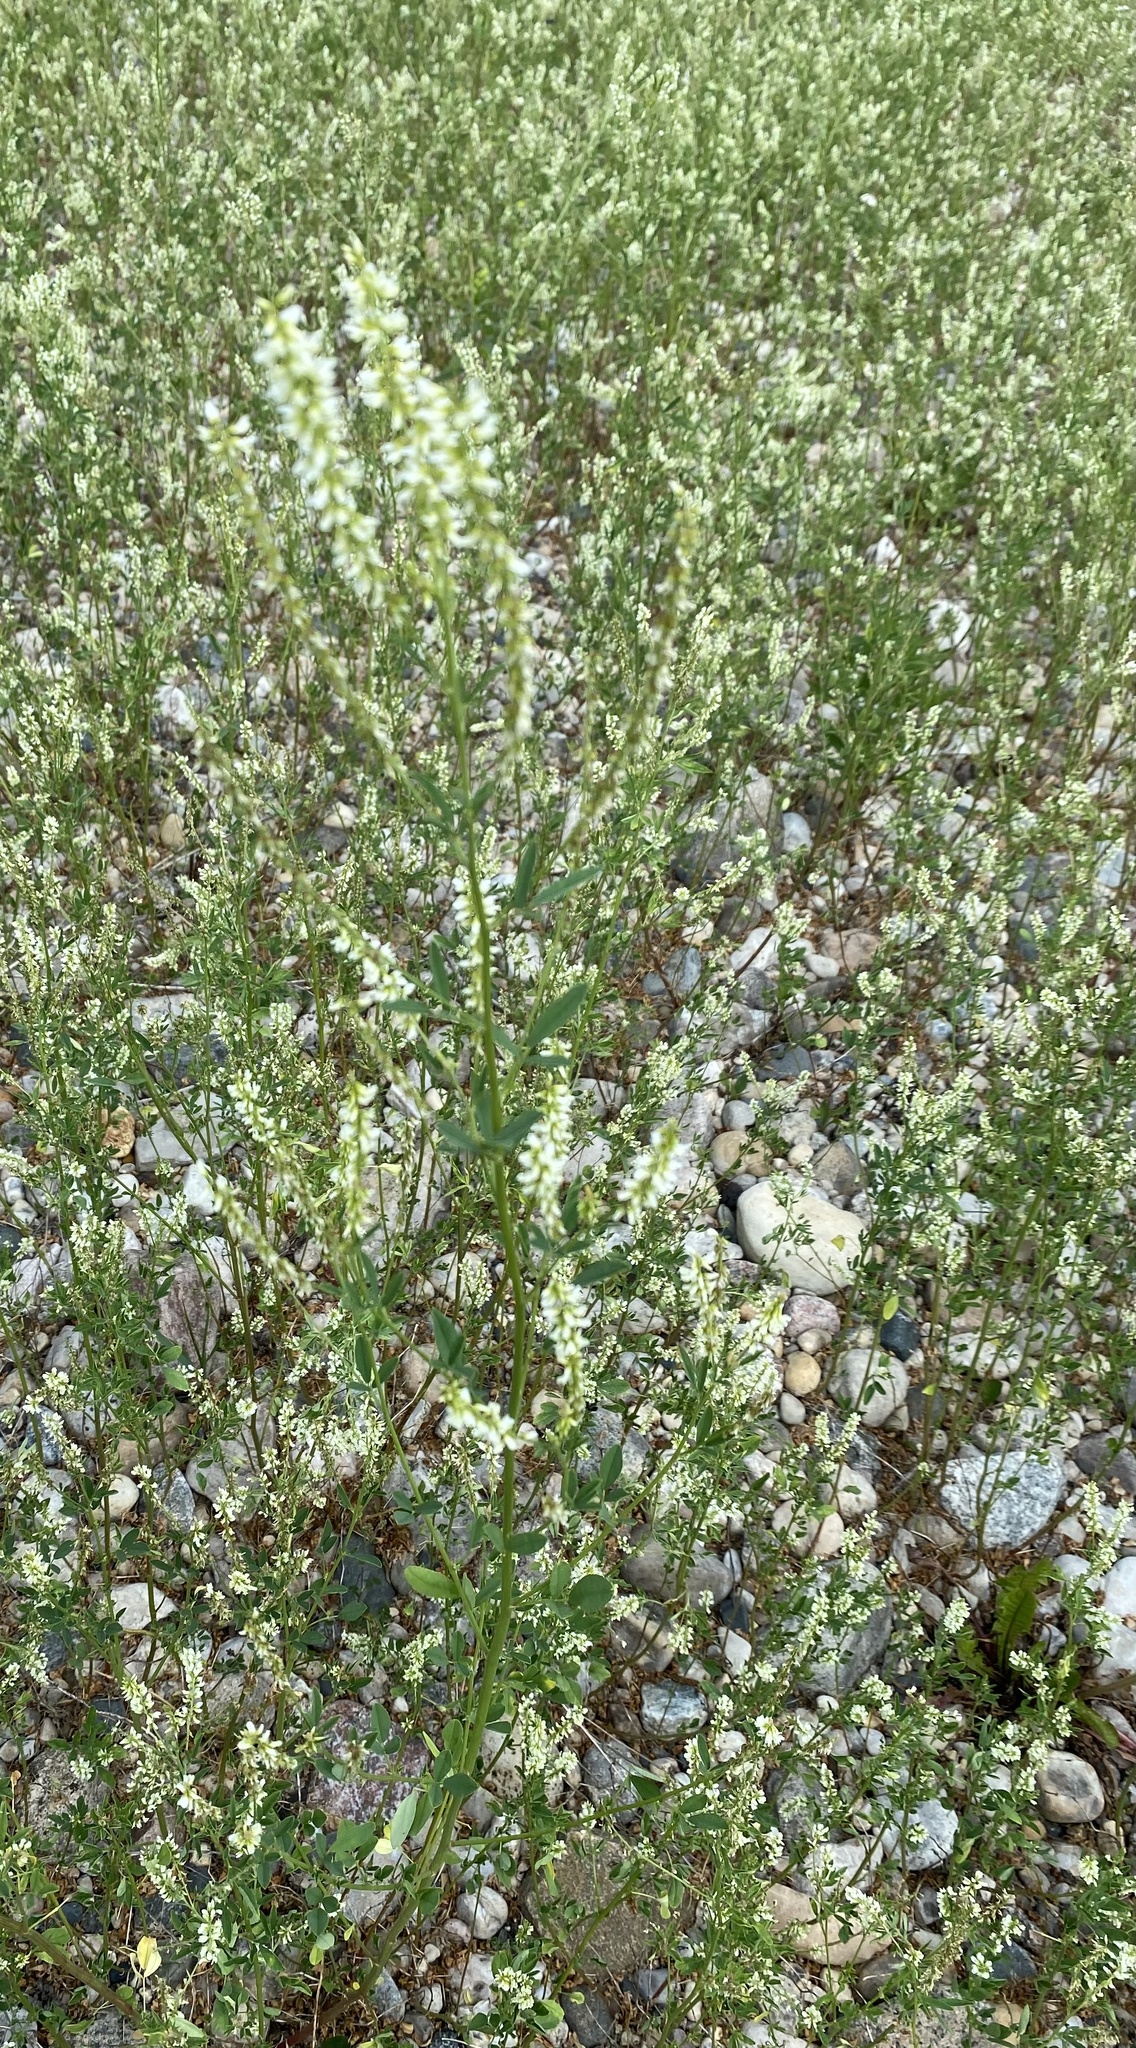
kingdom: Plantae
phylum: Tracheophyta
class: Magnoliopsida
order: Fabales
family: Fabaceae
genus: Melilotus
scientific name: Melilotus albus
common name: White melilot
